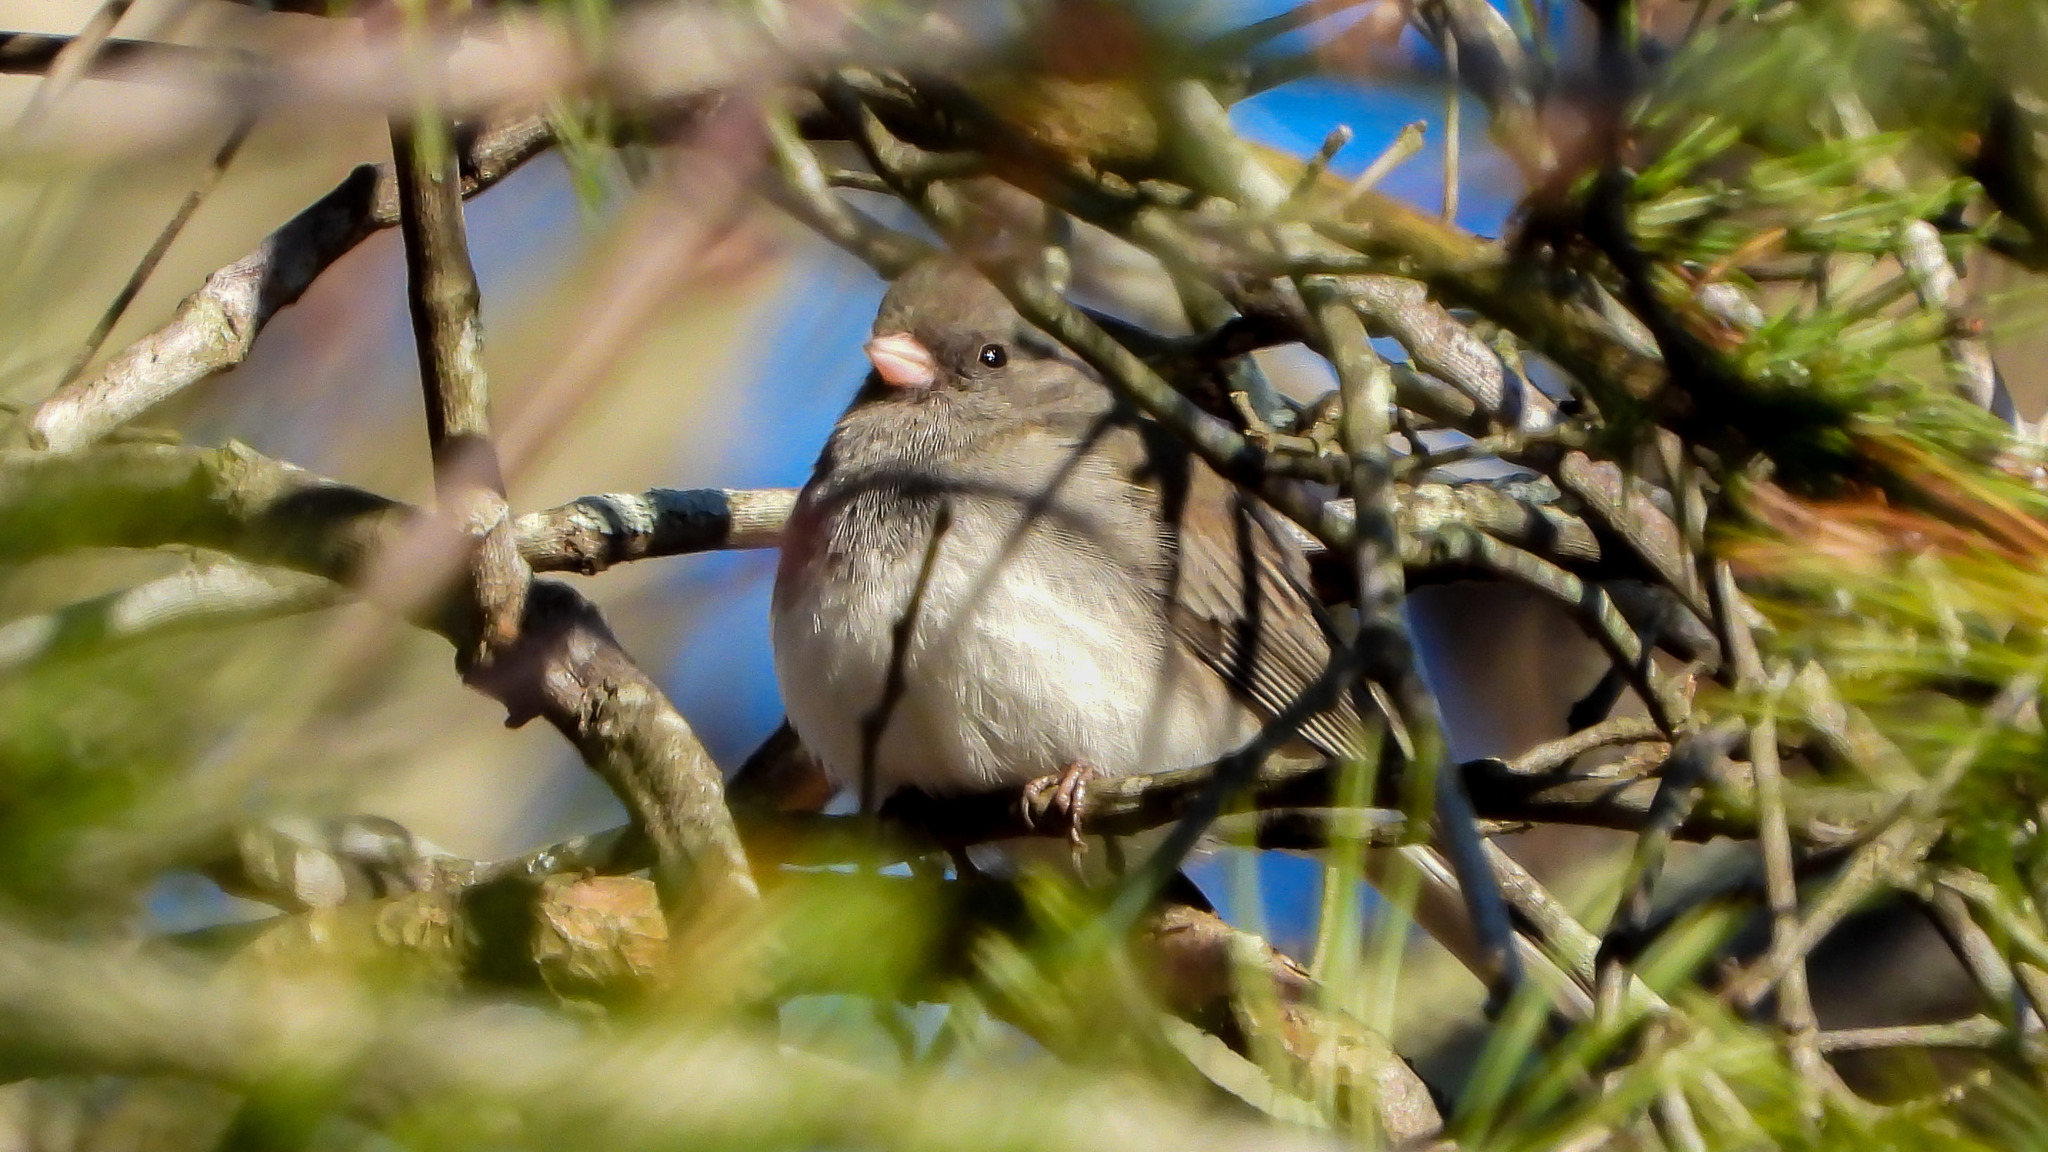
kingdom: Animalia
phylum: Chordata
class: Aves
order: Passeriformes
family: Passerellidae
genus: Junco
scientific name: Junco hyemalis
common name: Dark-eyed junco
